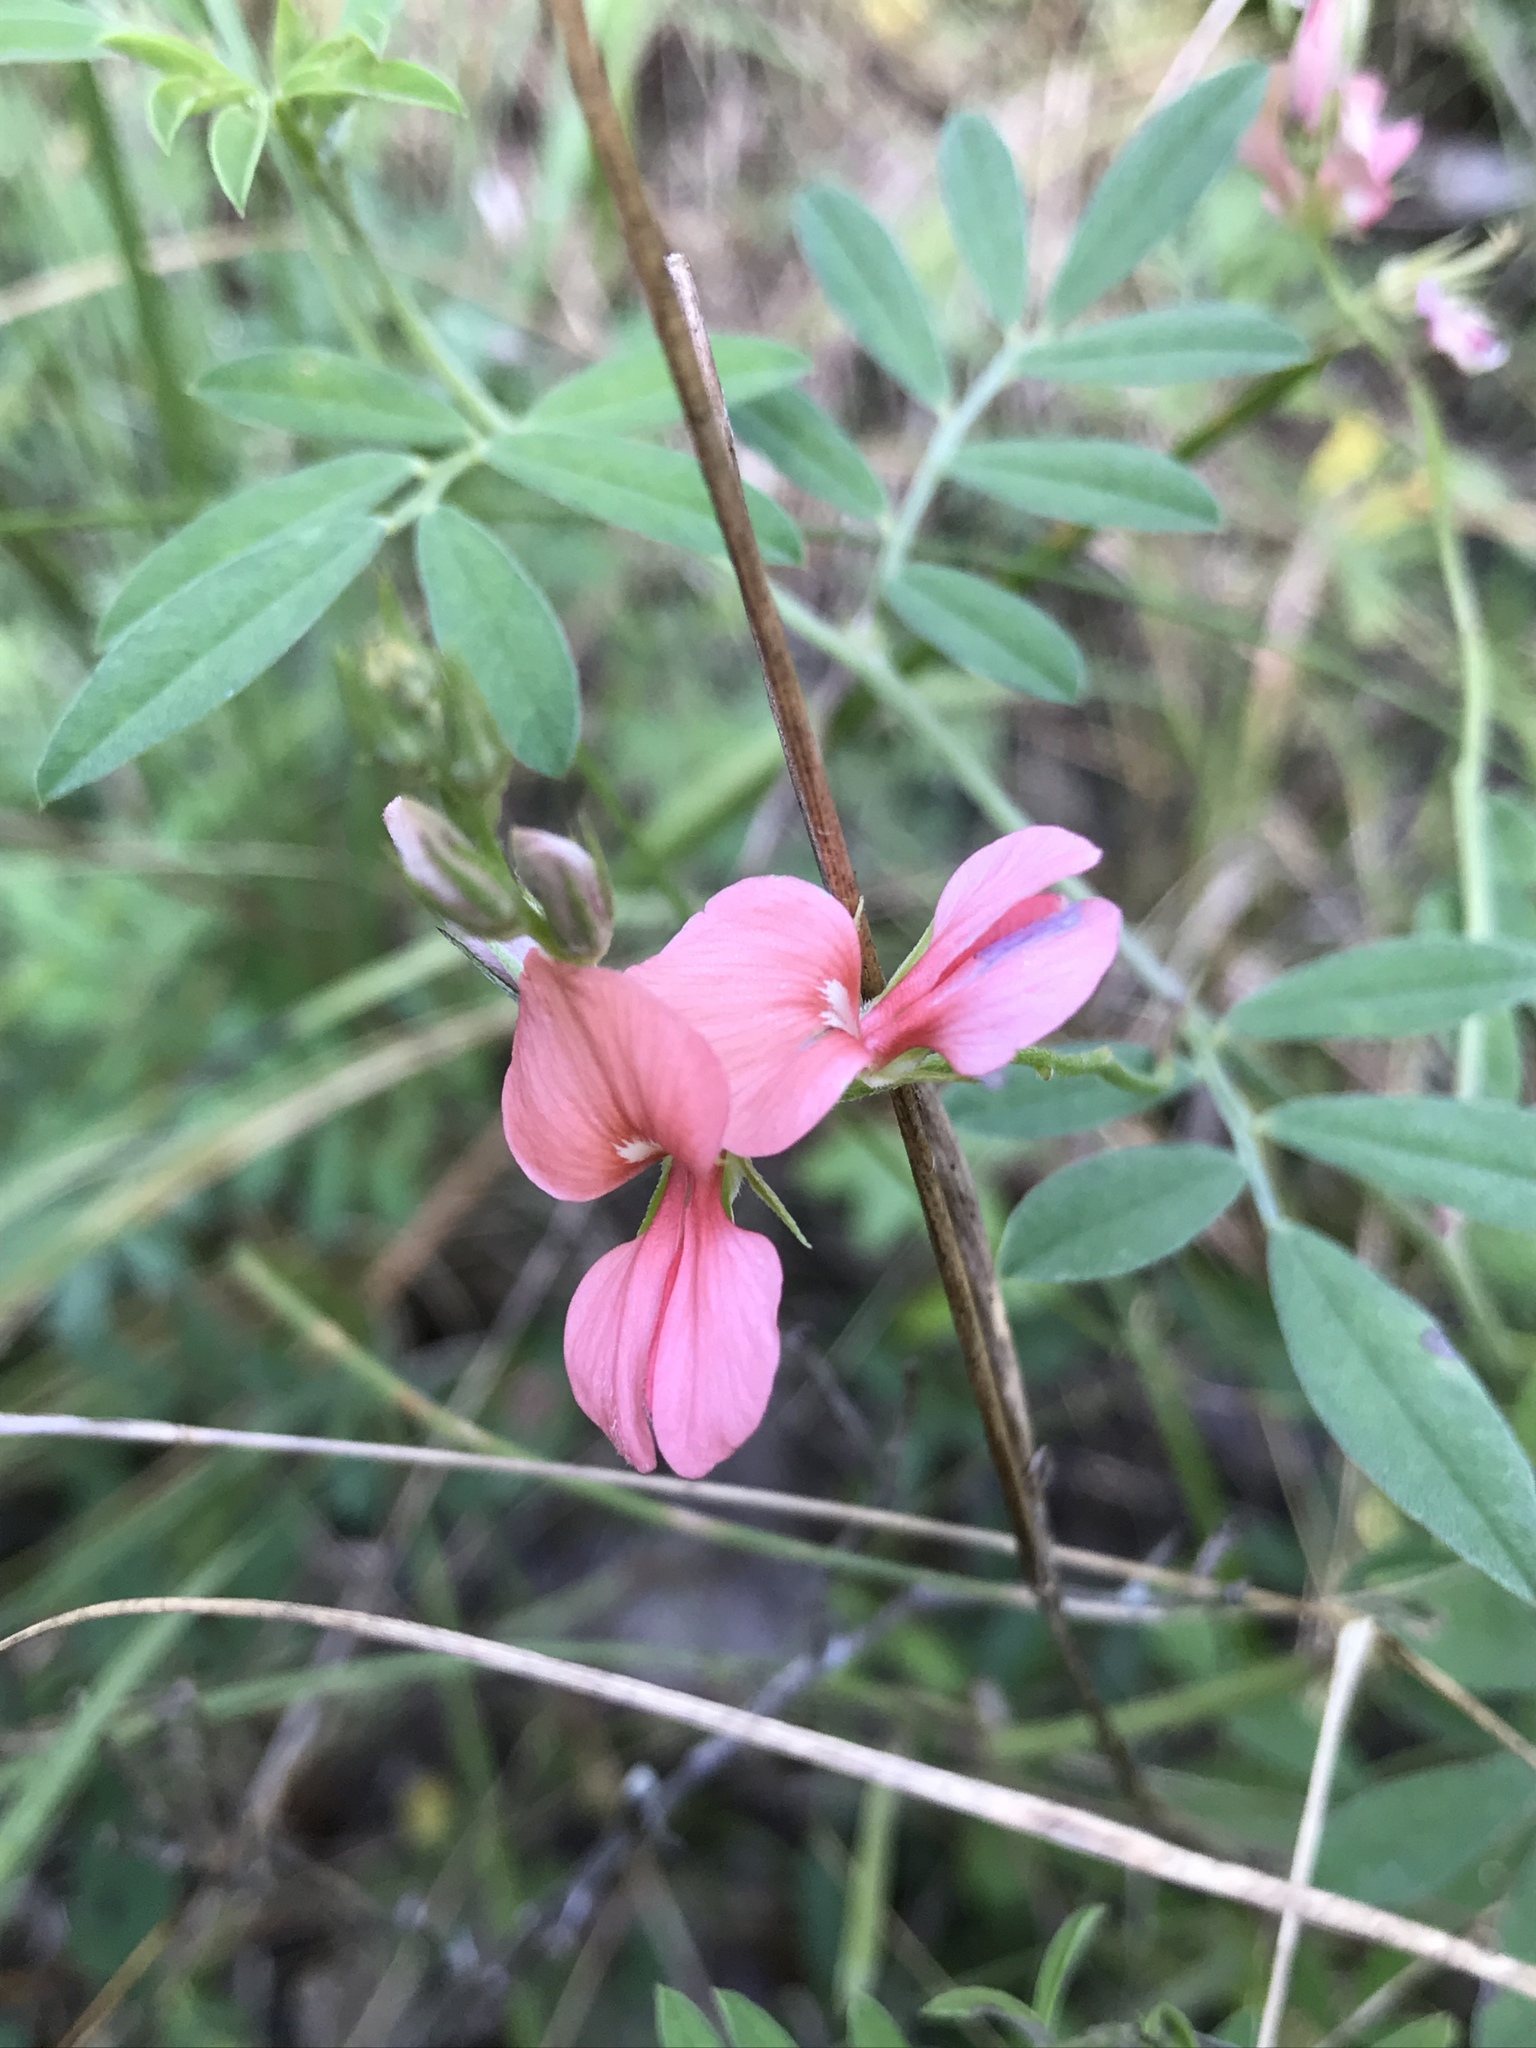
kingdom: Plantae
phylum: Tracheophyta
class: Magnoliopsida
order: Fabales
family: Fabaceae
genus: Indigofera
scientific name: Indigofera miniata
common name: Coast indigo
